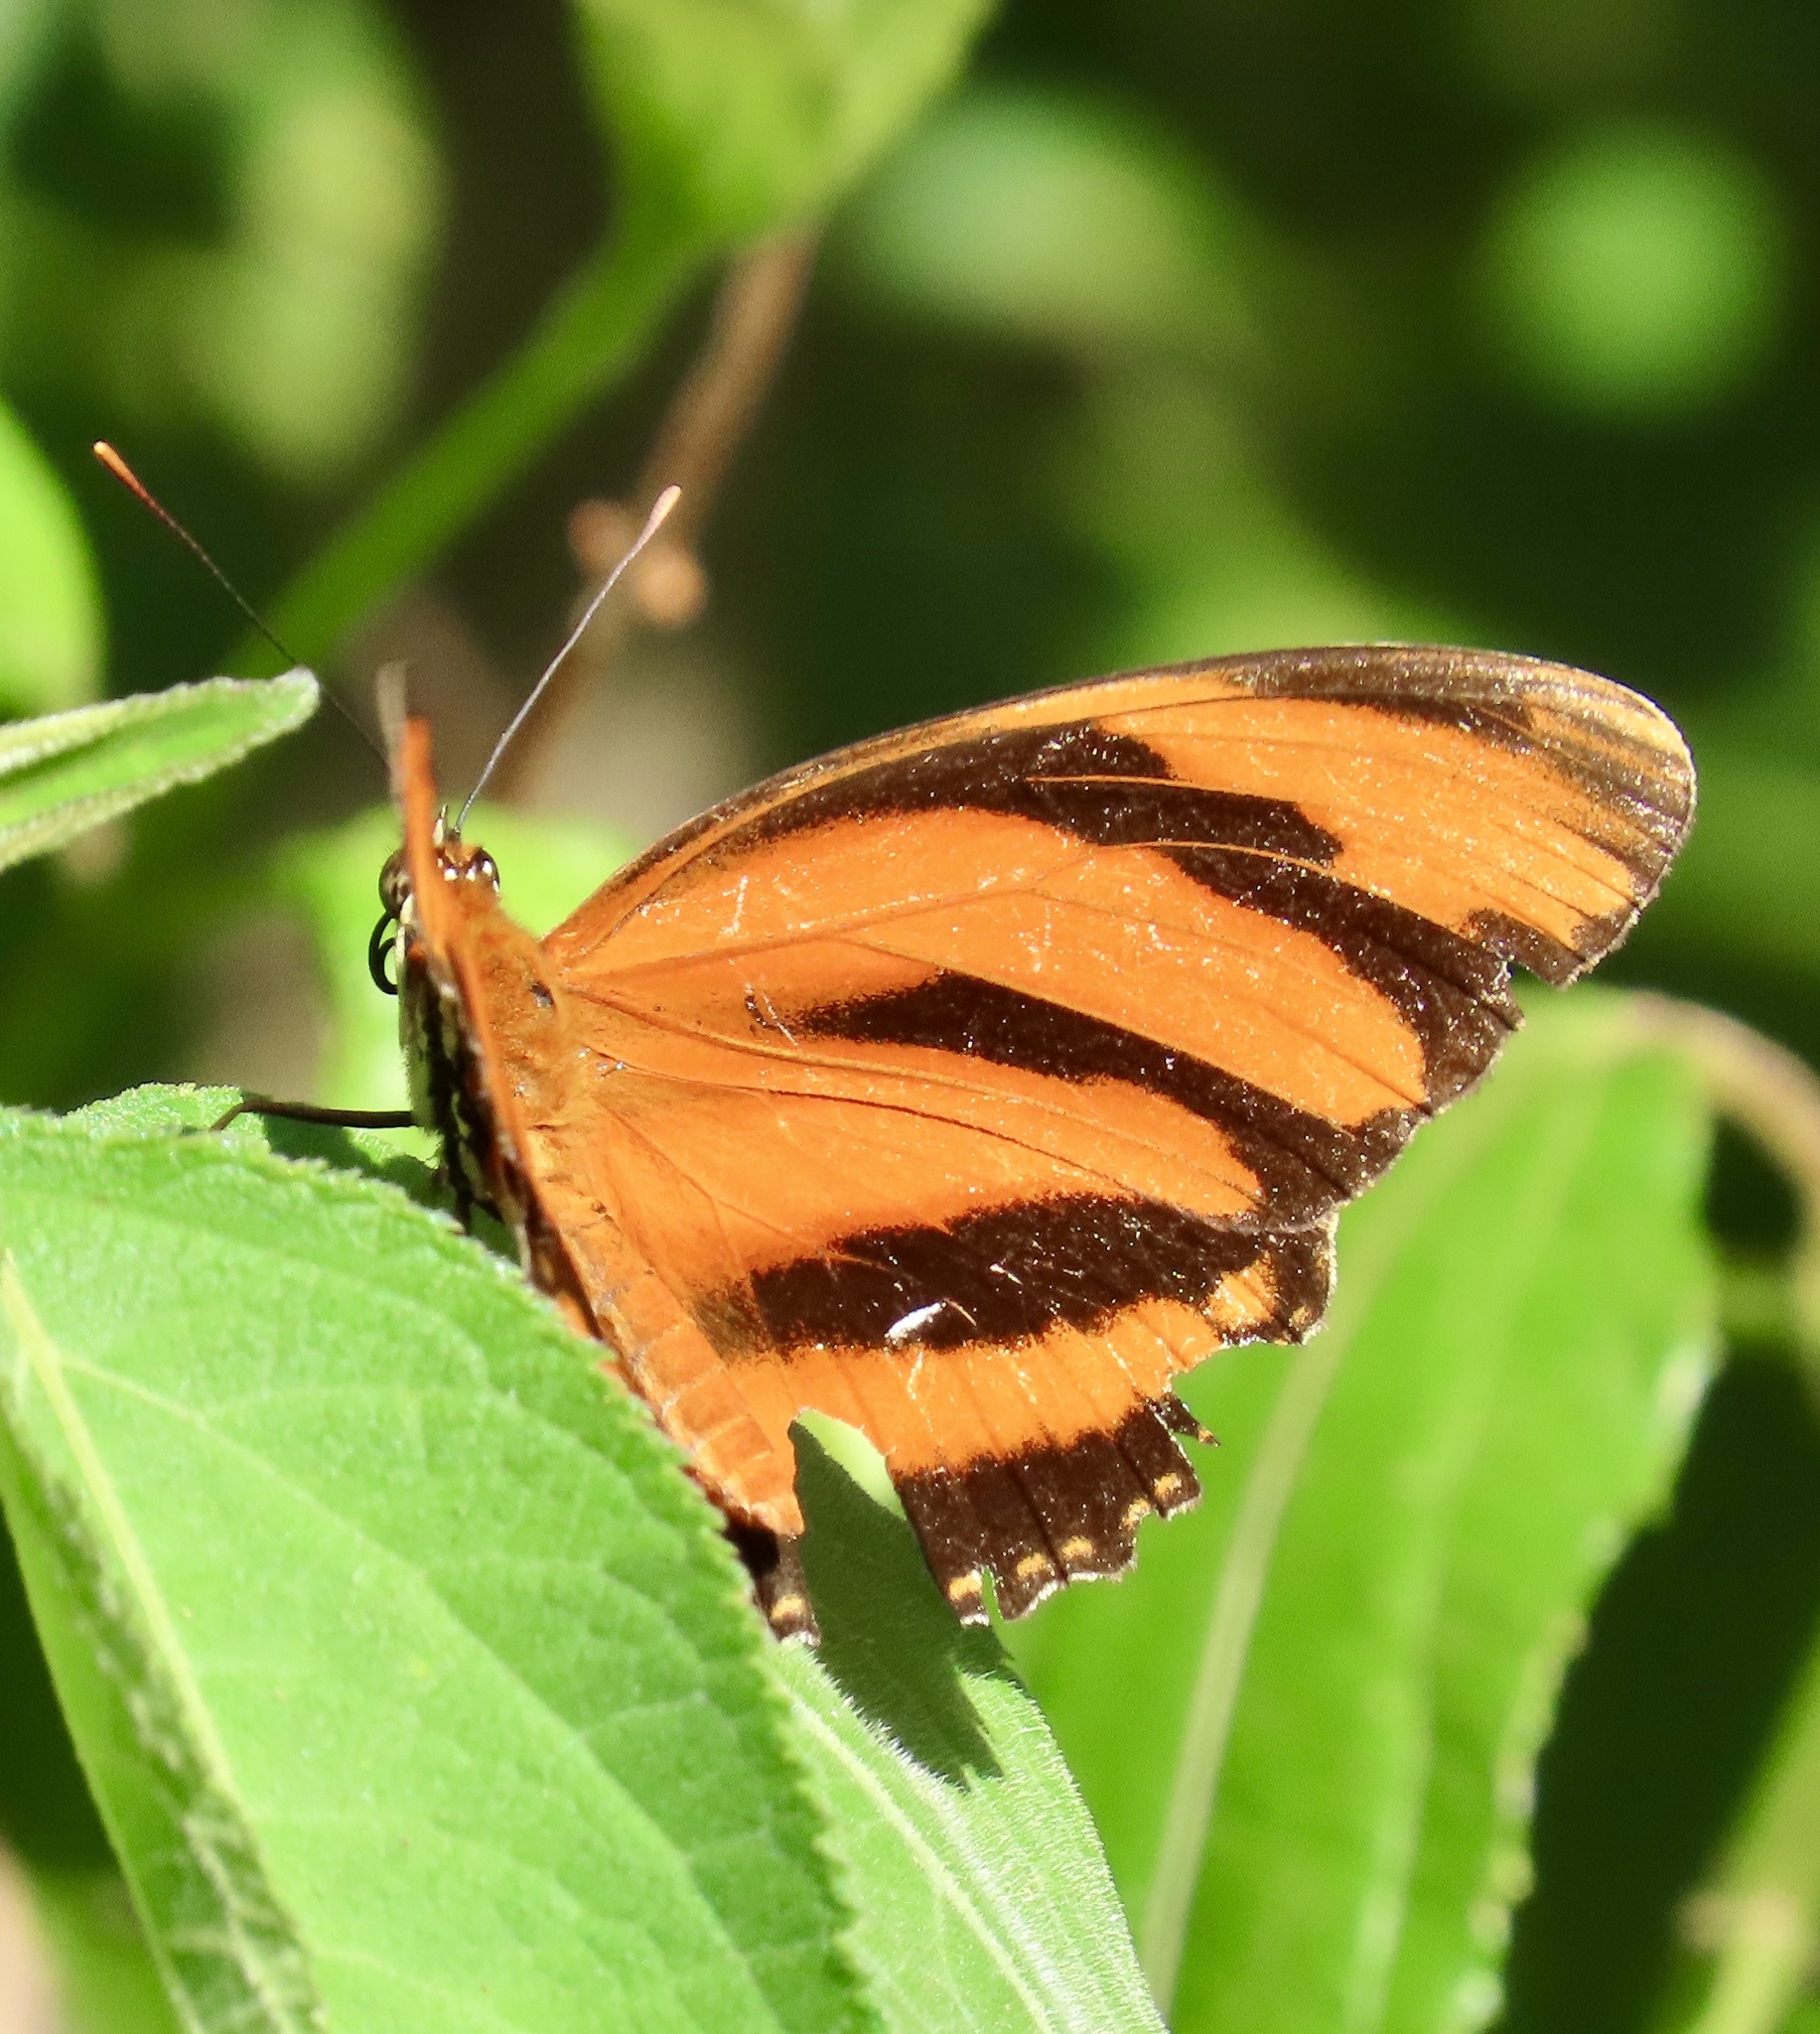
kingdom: Animalia
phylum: Arthropoda
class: Insecta
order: Lepidoptera
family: Nymphalidae
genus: Dryadula
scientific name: Dryadula phaetusa
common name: Banded orange heliconian
